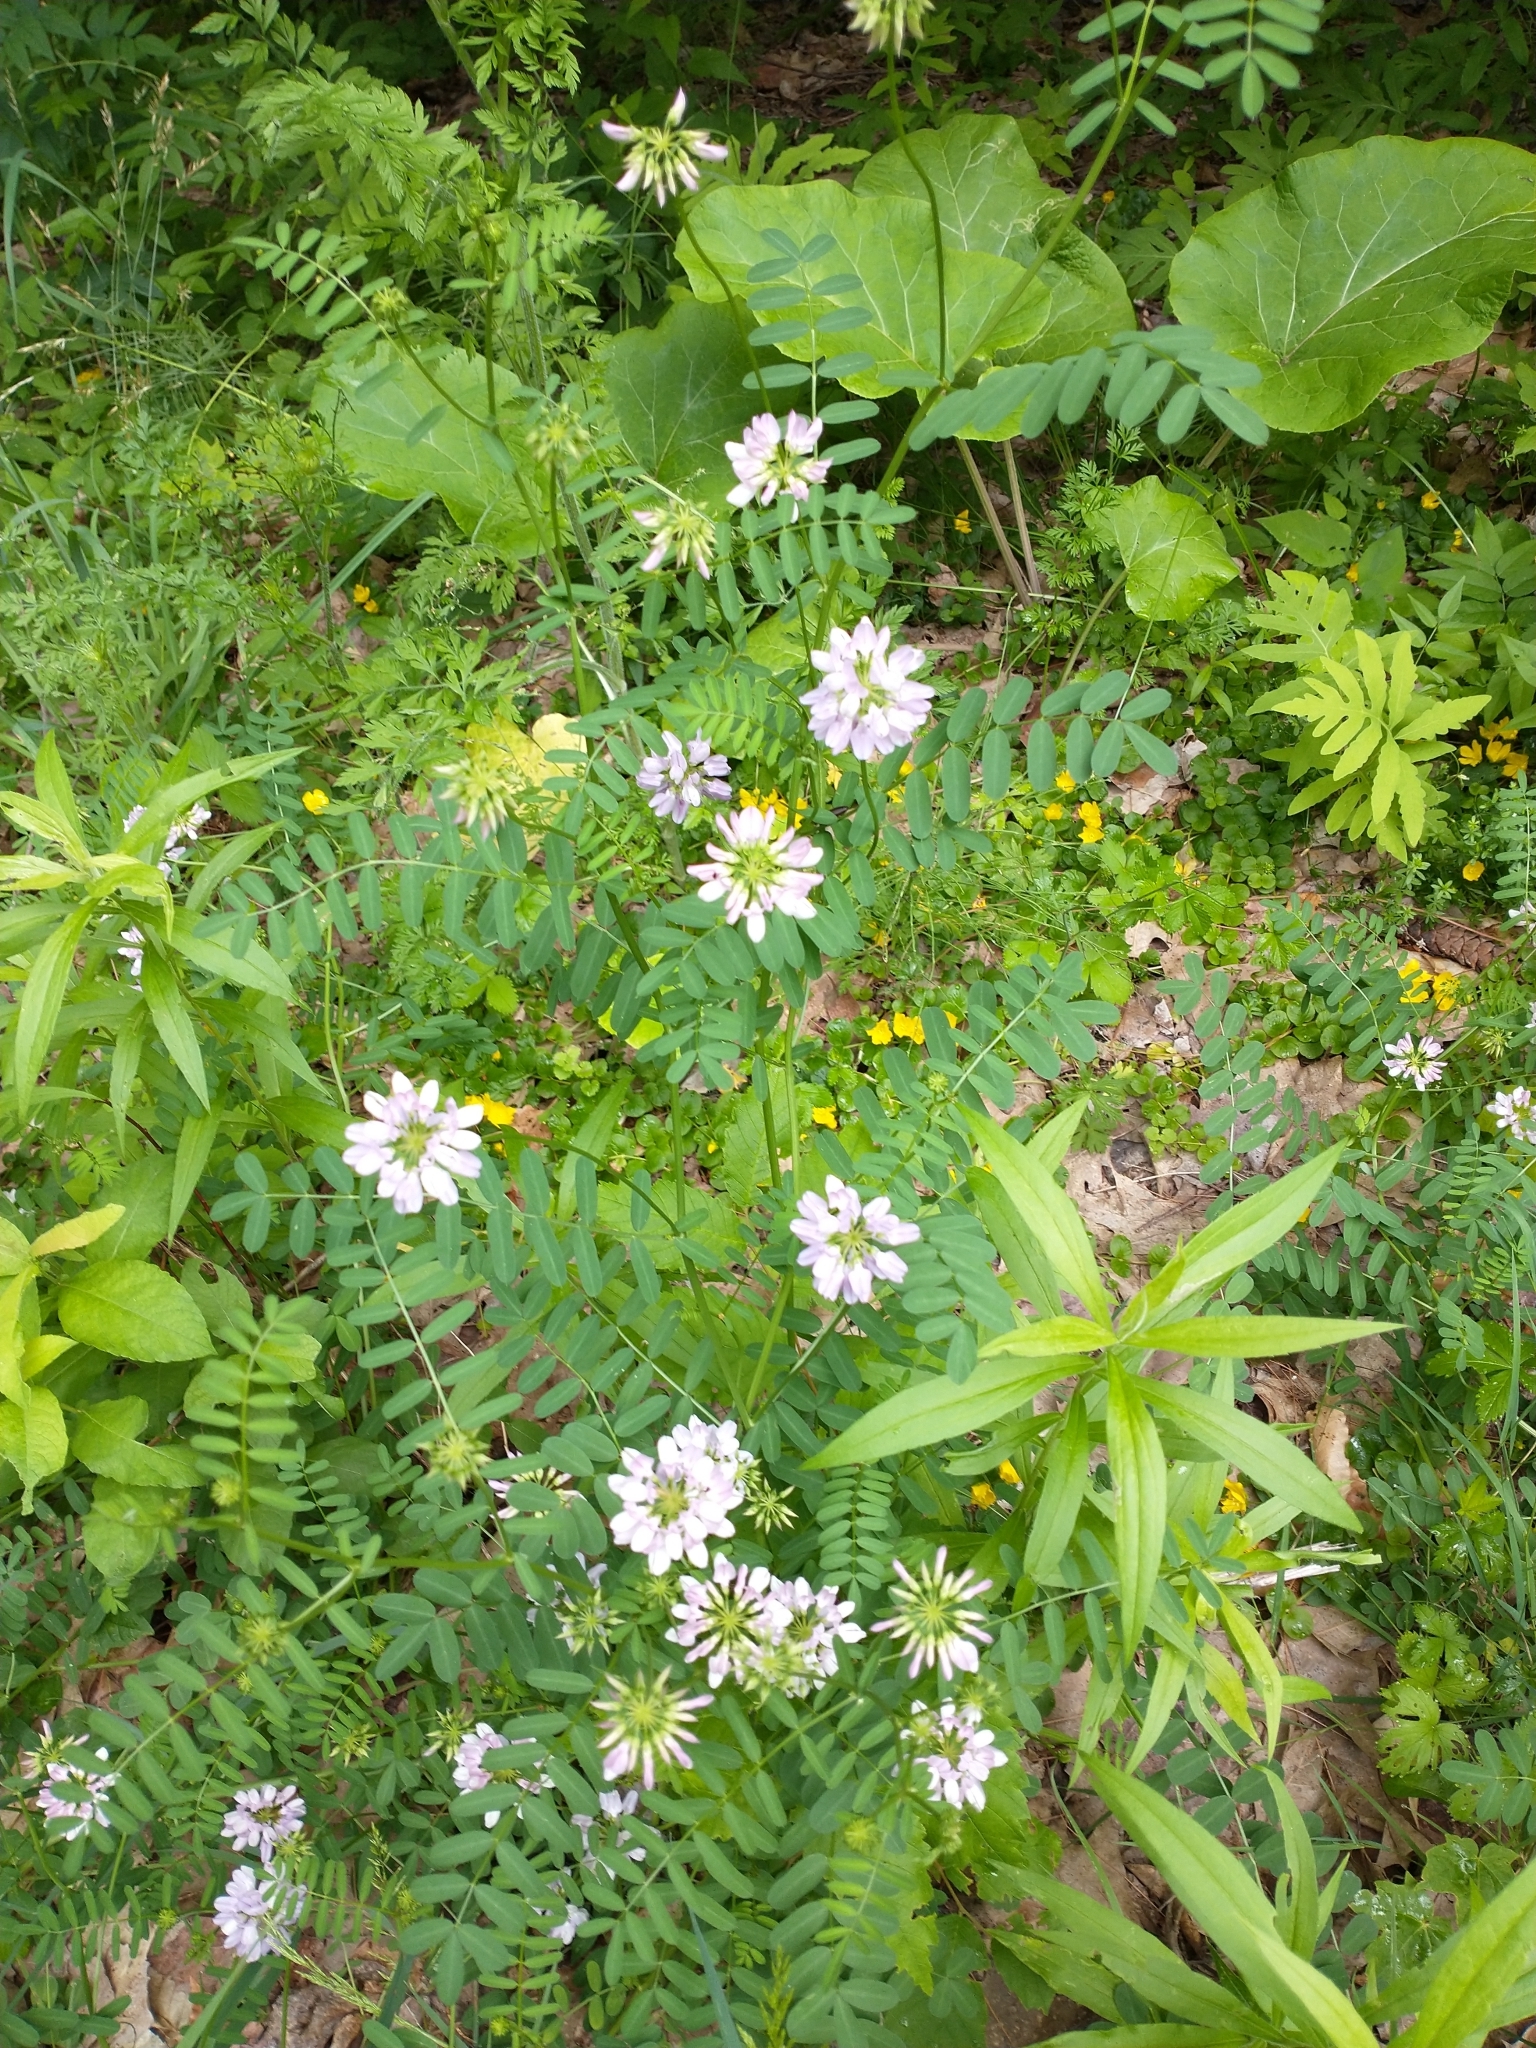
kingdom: Plantae
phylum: Tracheophyta
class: Magnoliopsida
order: Fabales
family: Fabaceae
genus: Coronilla
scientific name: Coronilla varia
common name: Crownvetch
